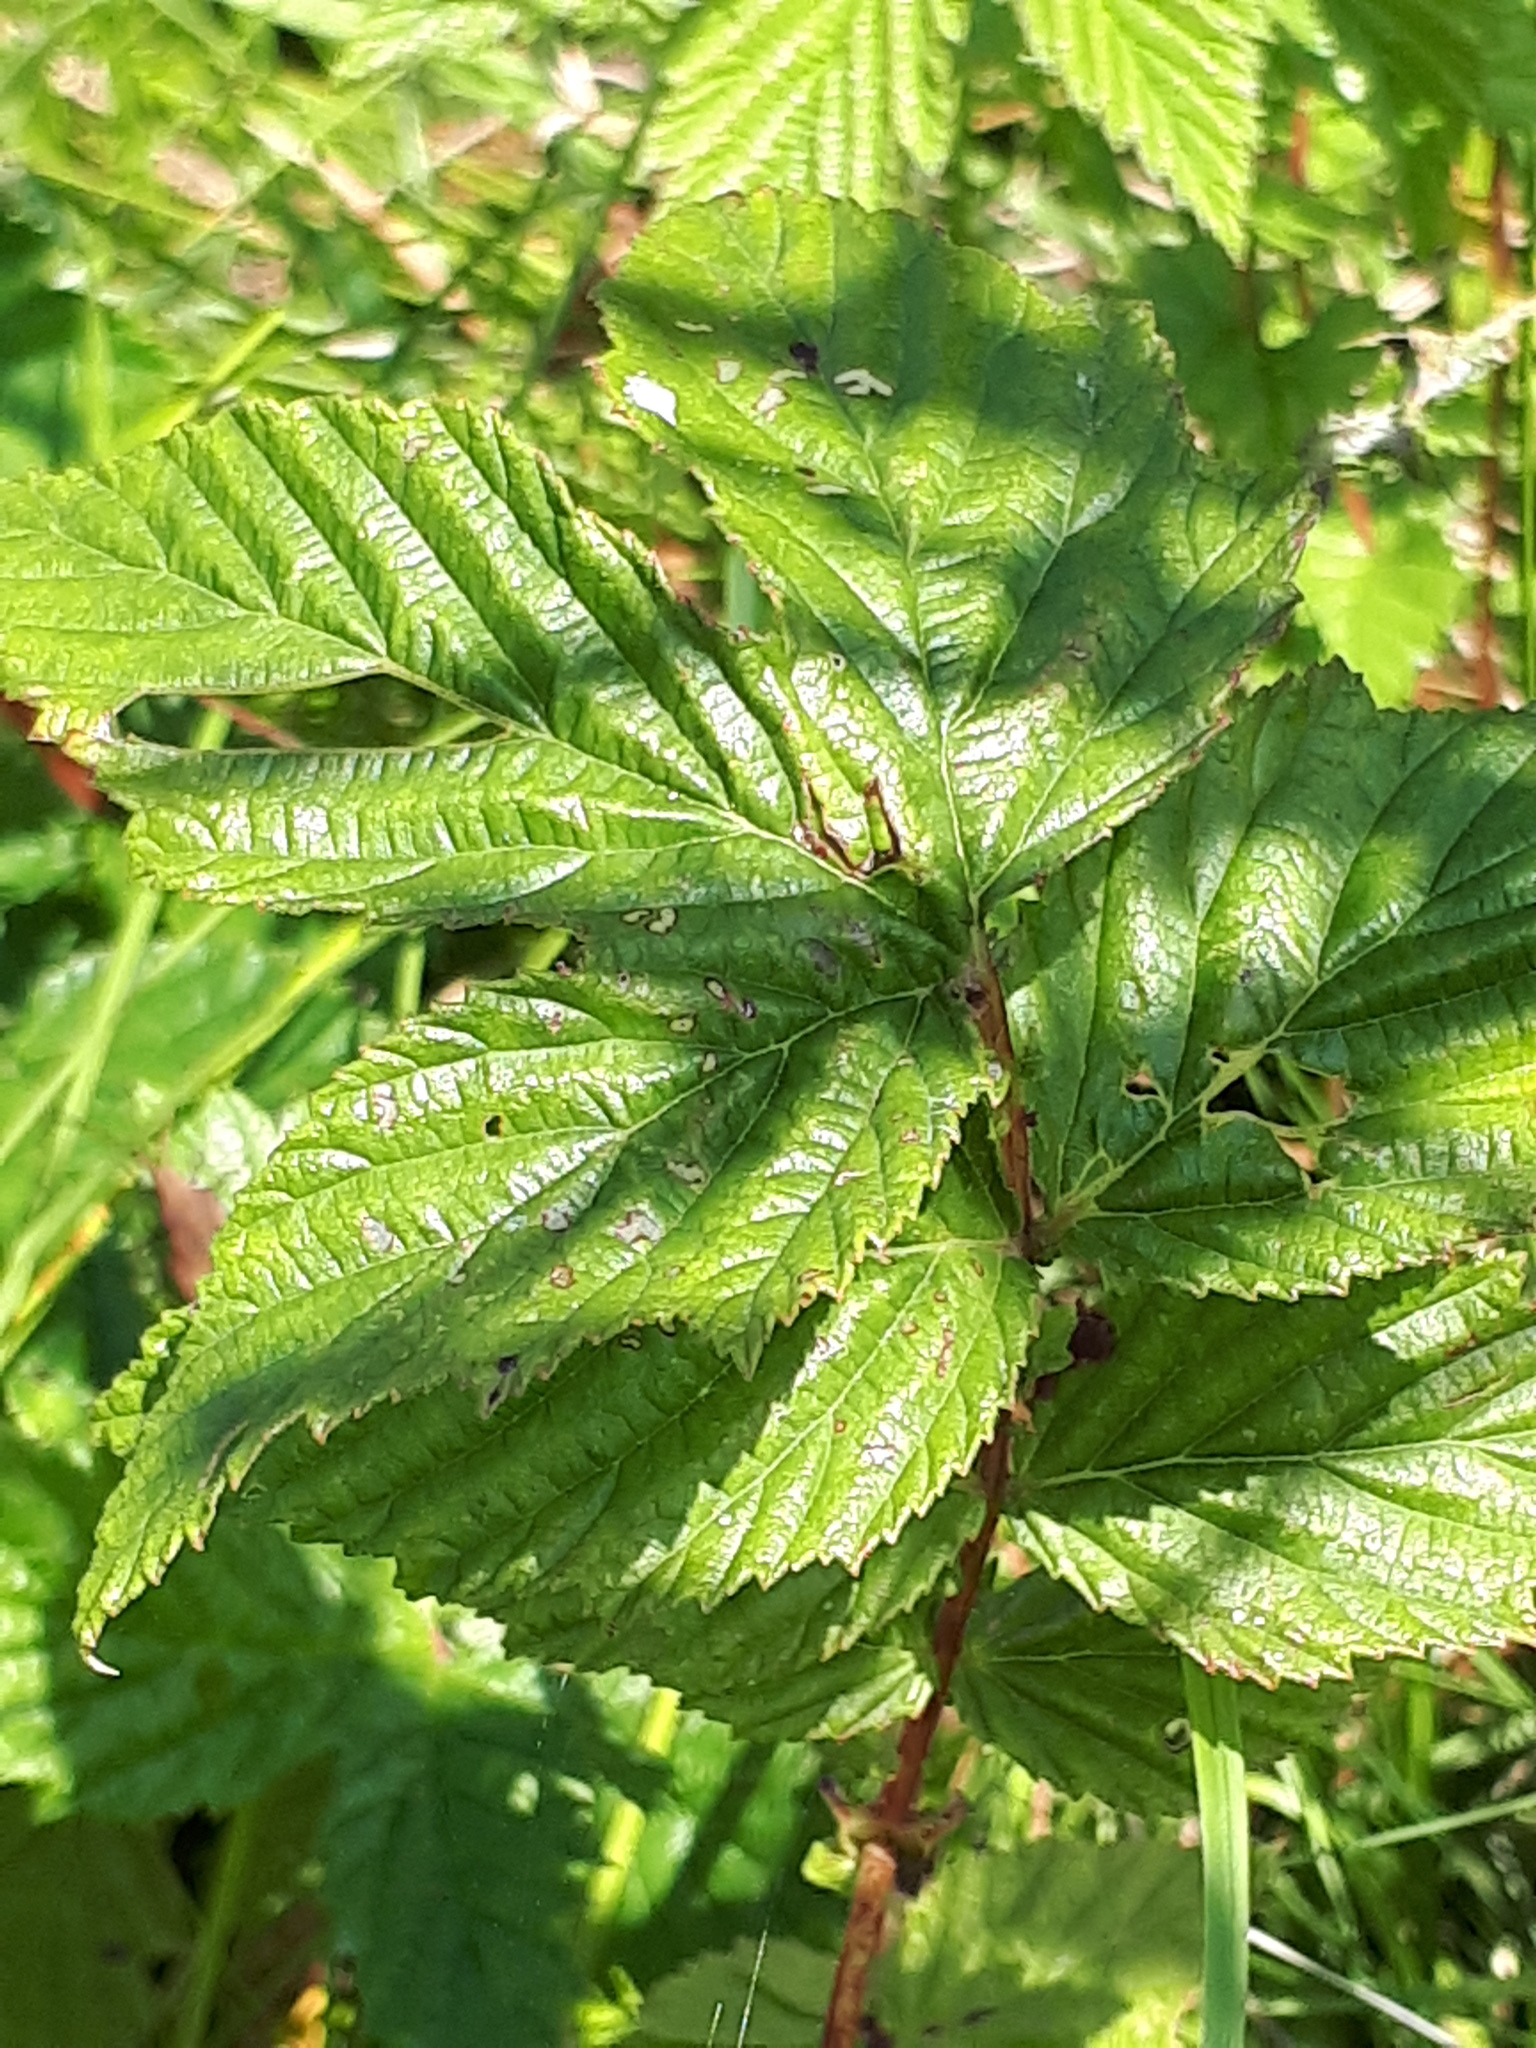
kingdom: Plantae
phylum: Tracheophyta
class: Magnoliopsida
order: Rosales
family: Rosaceae
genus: Filipendula
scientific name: Filipendula ulmaria
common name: Meadowsweet
